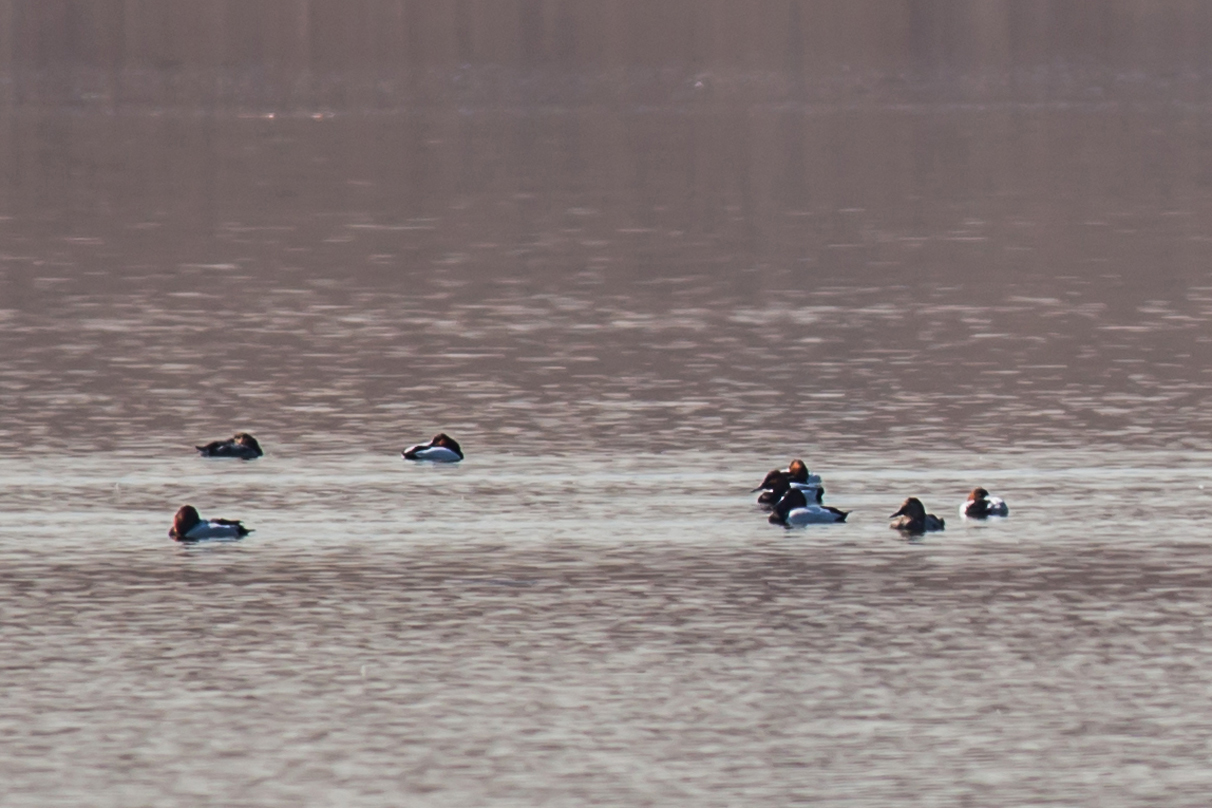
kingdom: Animalia
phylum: Chordata
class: Aves
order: Anseriformes
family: Anatidae
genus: Aythya
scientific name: Aythya valisineria
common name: Canvasback
